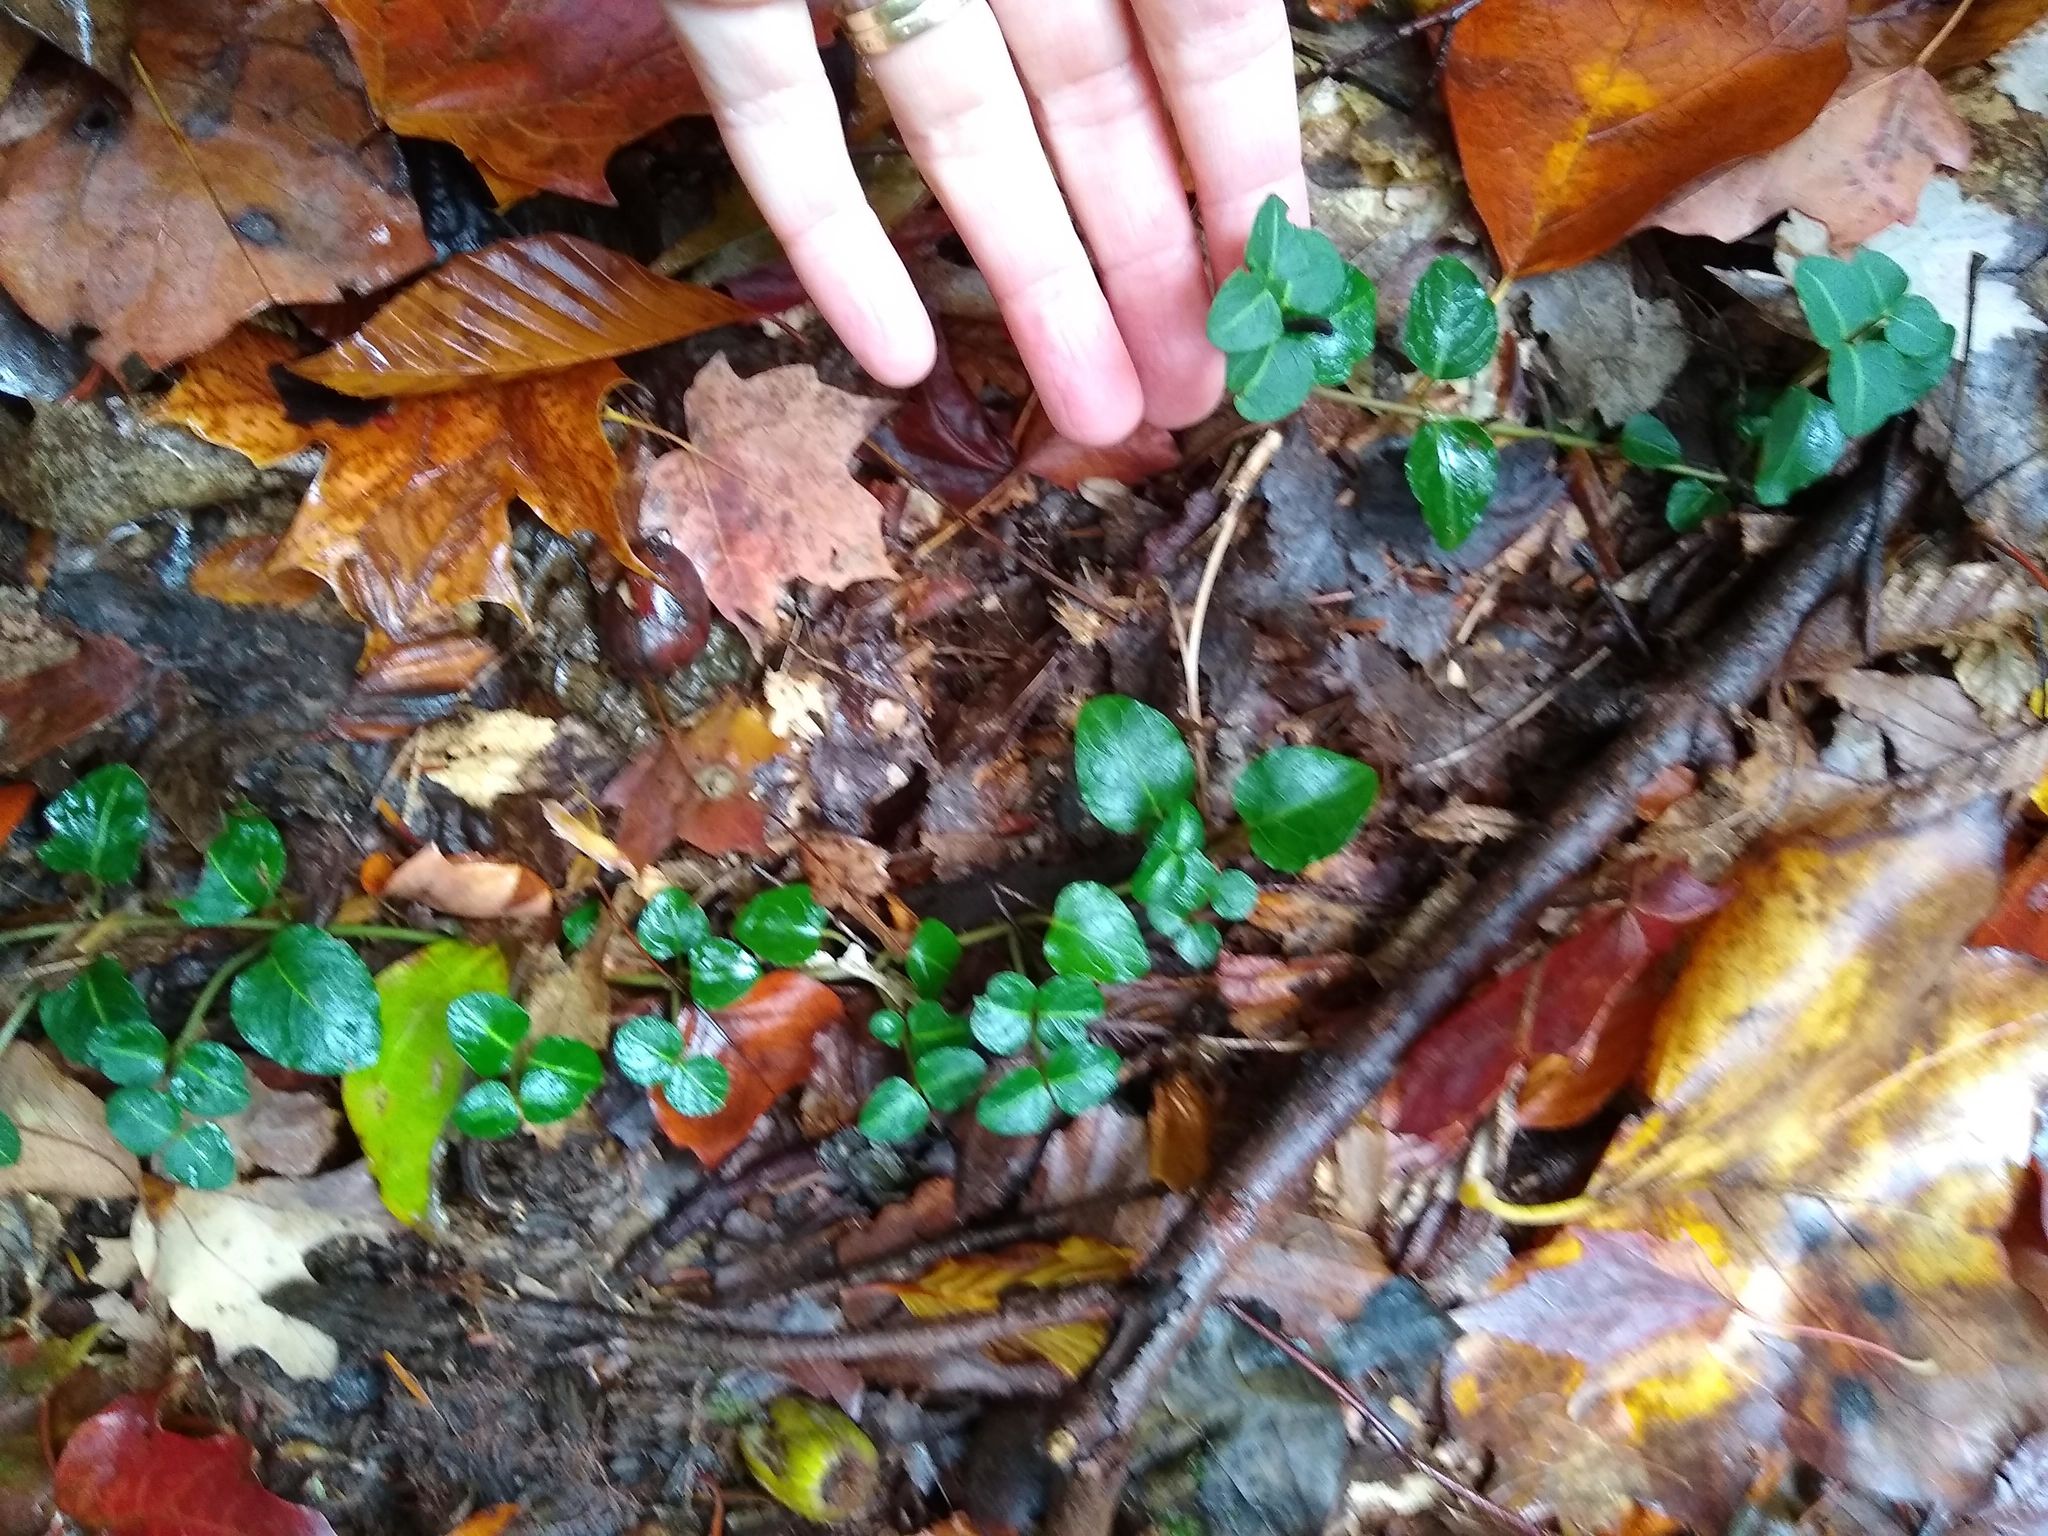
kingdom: Plantae
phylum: Tracheophyta
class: Magnoliopsida
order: Gentianales
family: Rubiaceae
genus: Mitchella
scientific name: Mitchella repens
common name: Partridge-berry
